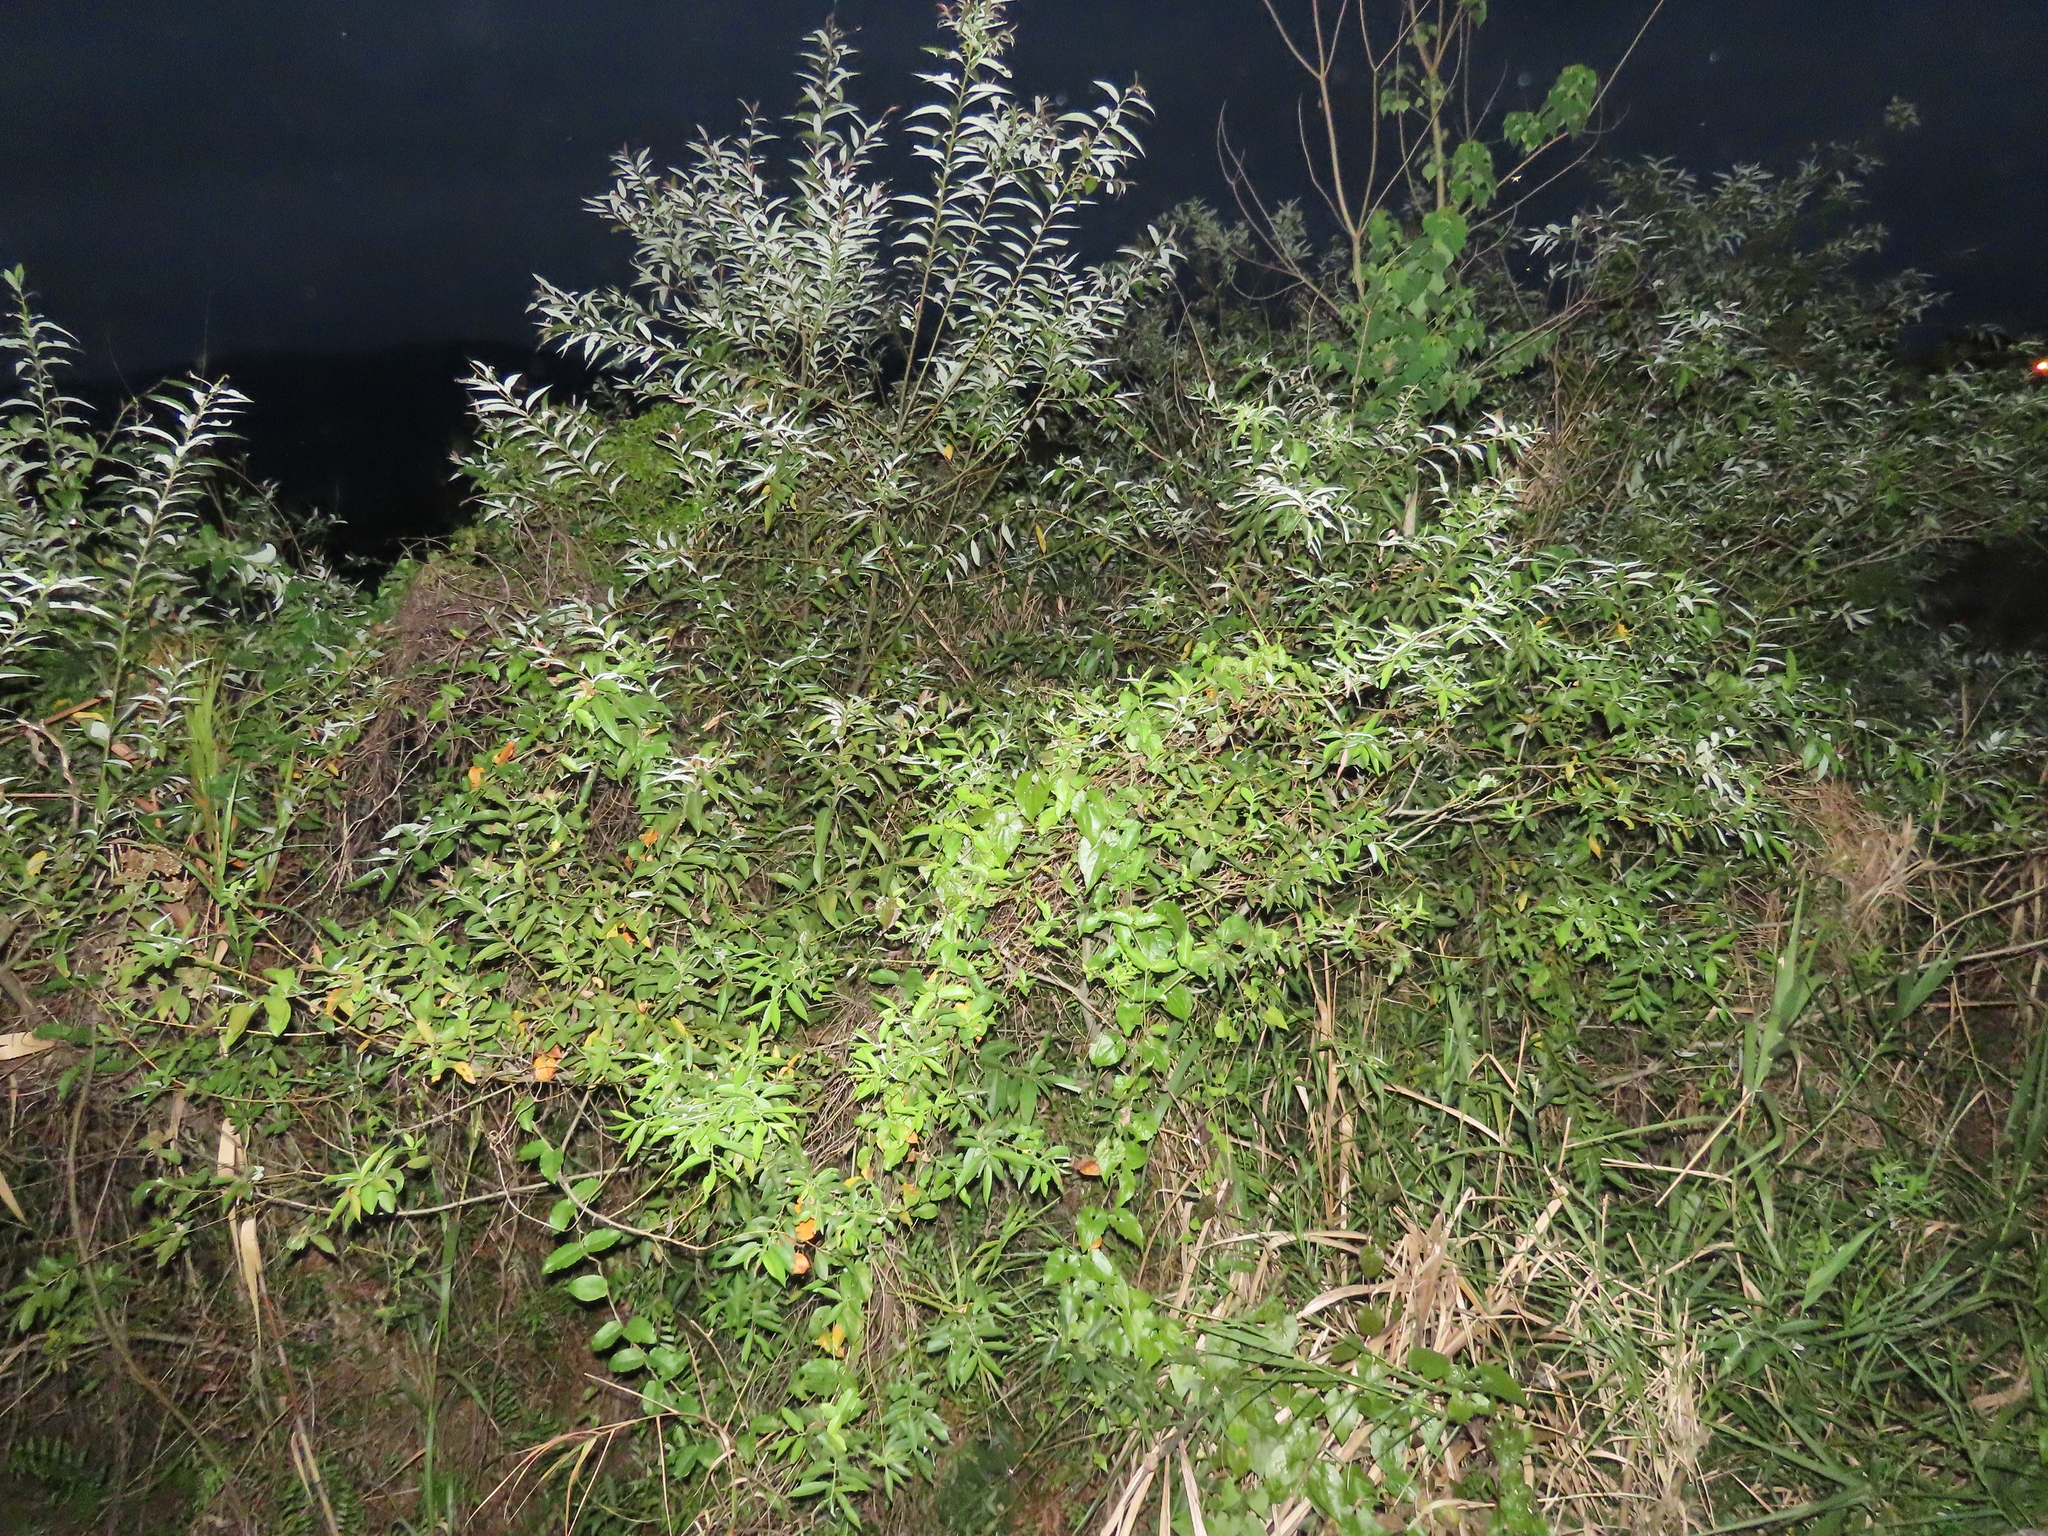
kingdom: Plantae
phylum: Tracheophyta
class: Magnoliopsida
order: Malpighiales
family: Salicaceae
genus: Salix
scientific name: Salix mesnyi
